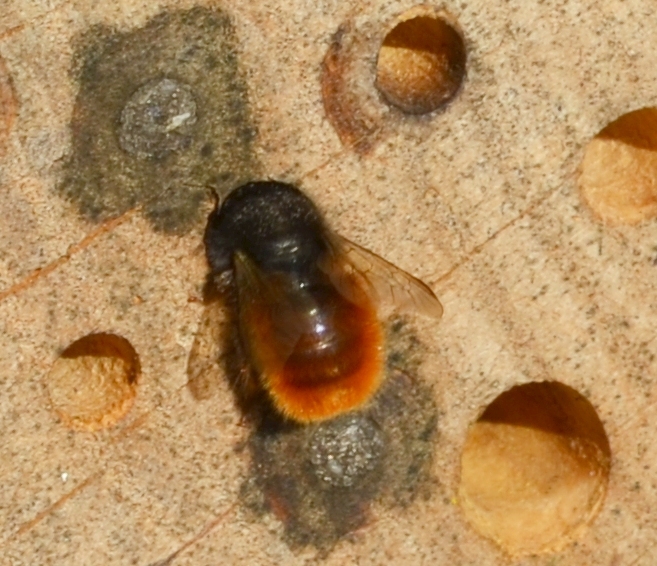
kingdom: Animalia
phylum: Arthropoda
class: Insecta
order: Hymenoptera
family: Megachilidae
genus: Osmia
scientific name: Osmia cornuta
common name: Mason bee
